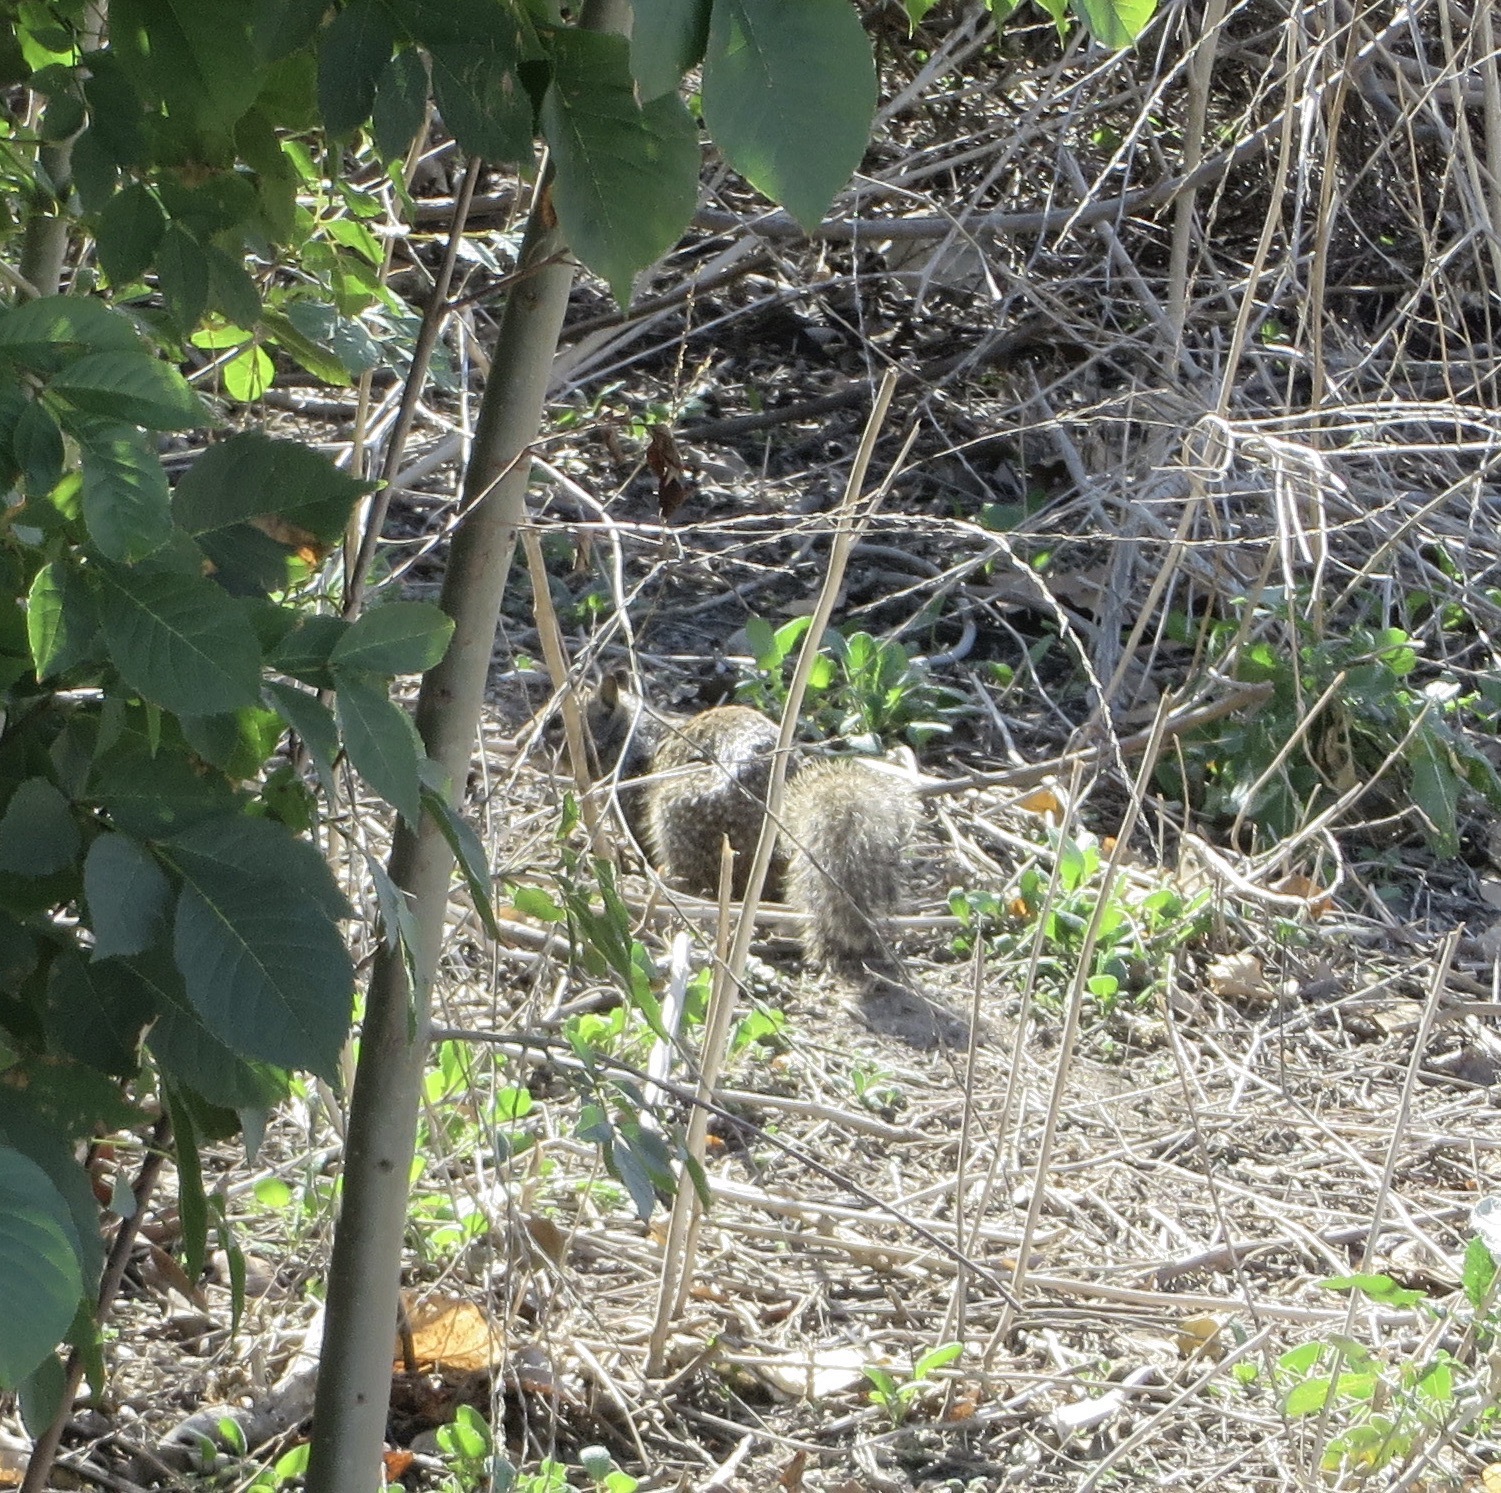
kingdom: Animalia
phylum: Chordata
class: Mammalia
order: Rodentia
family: Sciuridae
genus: Otospermophilus
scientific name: Otospermophilus beecheyi
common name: California ground squirrel
